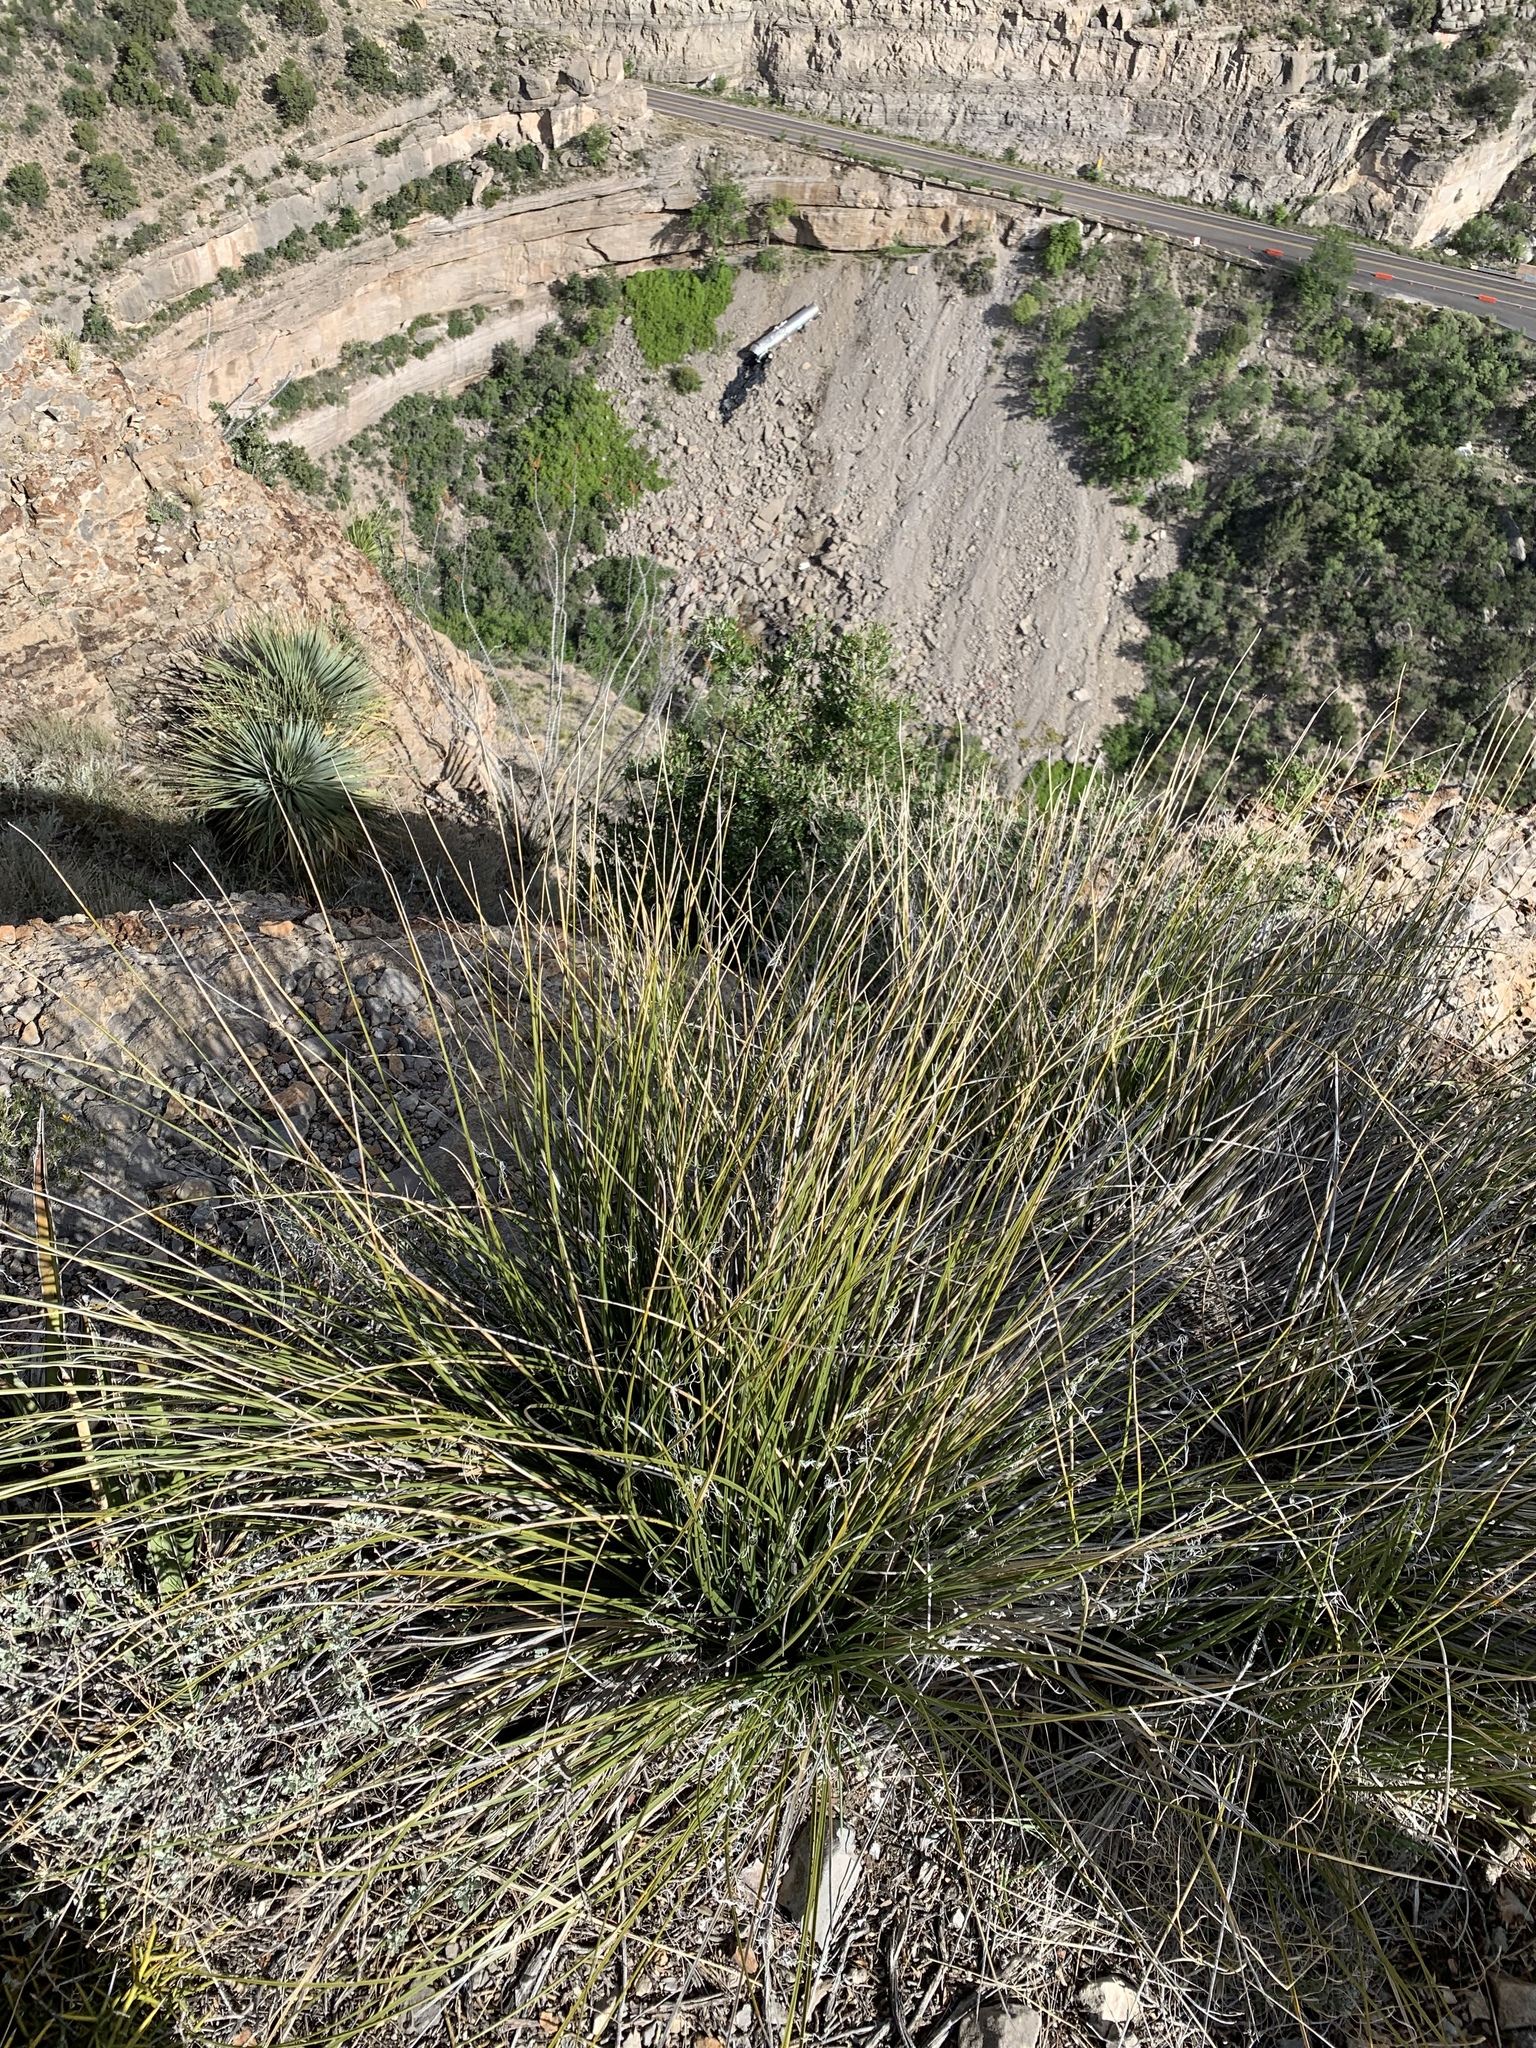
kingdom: Plantae
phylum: Tracheophyta
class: Liliopsida
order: Asparagales
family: Asparagaceae
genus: Nolina
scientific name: Nolina microcarpa
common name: Bear-grass
